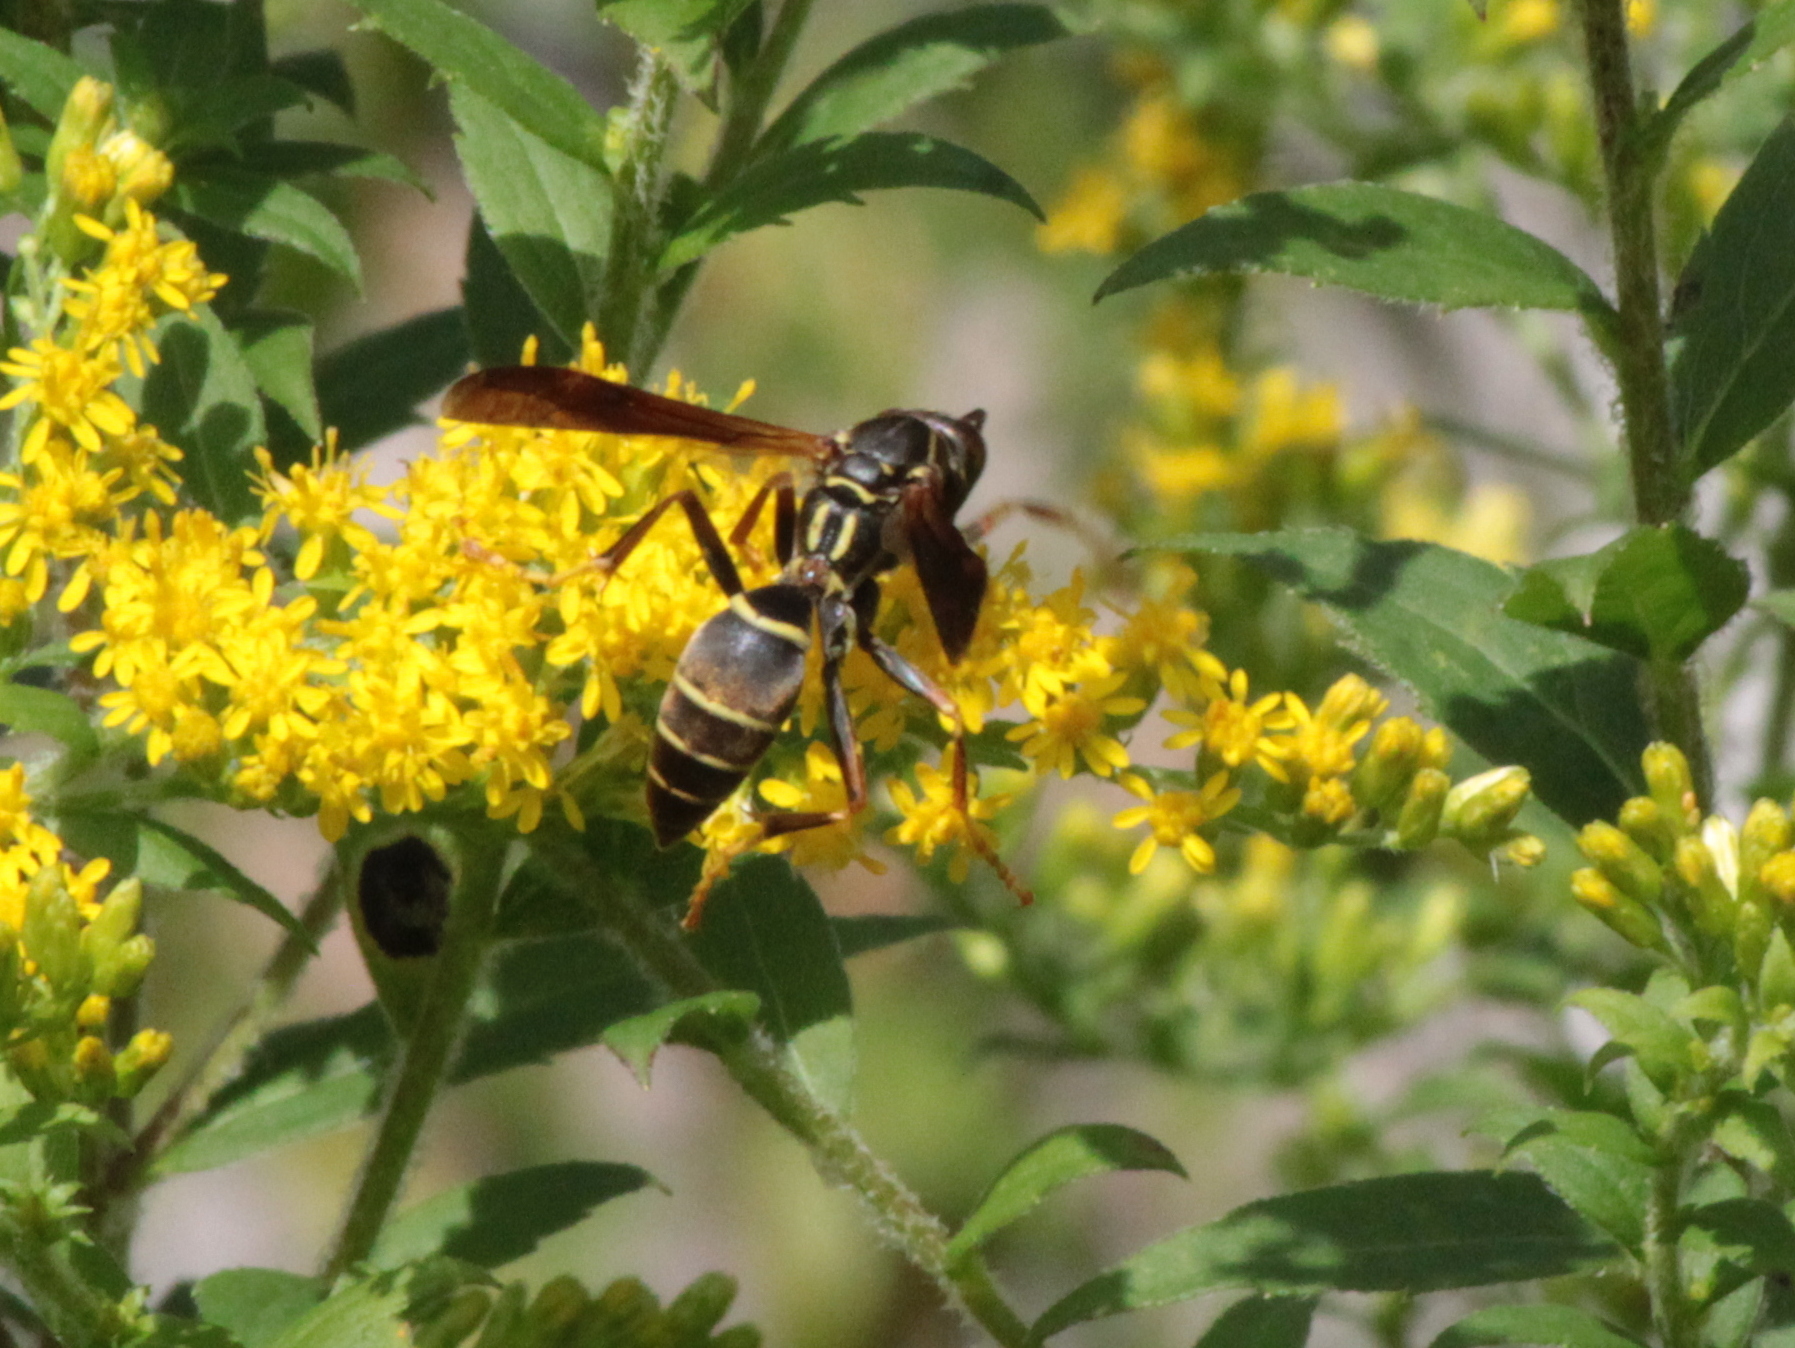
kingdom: Animalia
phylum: Arthropoda
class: Insecta
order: Hymenoptera
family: Eumenidae
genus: Polistes
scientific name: Polistes fuscatus
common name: Dark paper wasp
